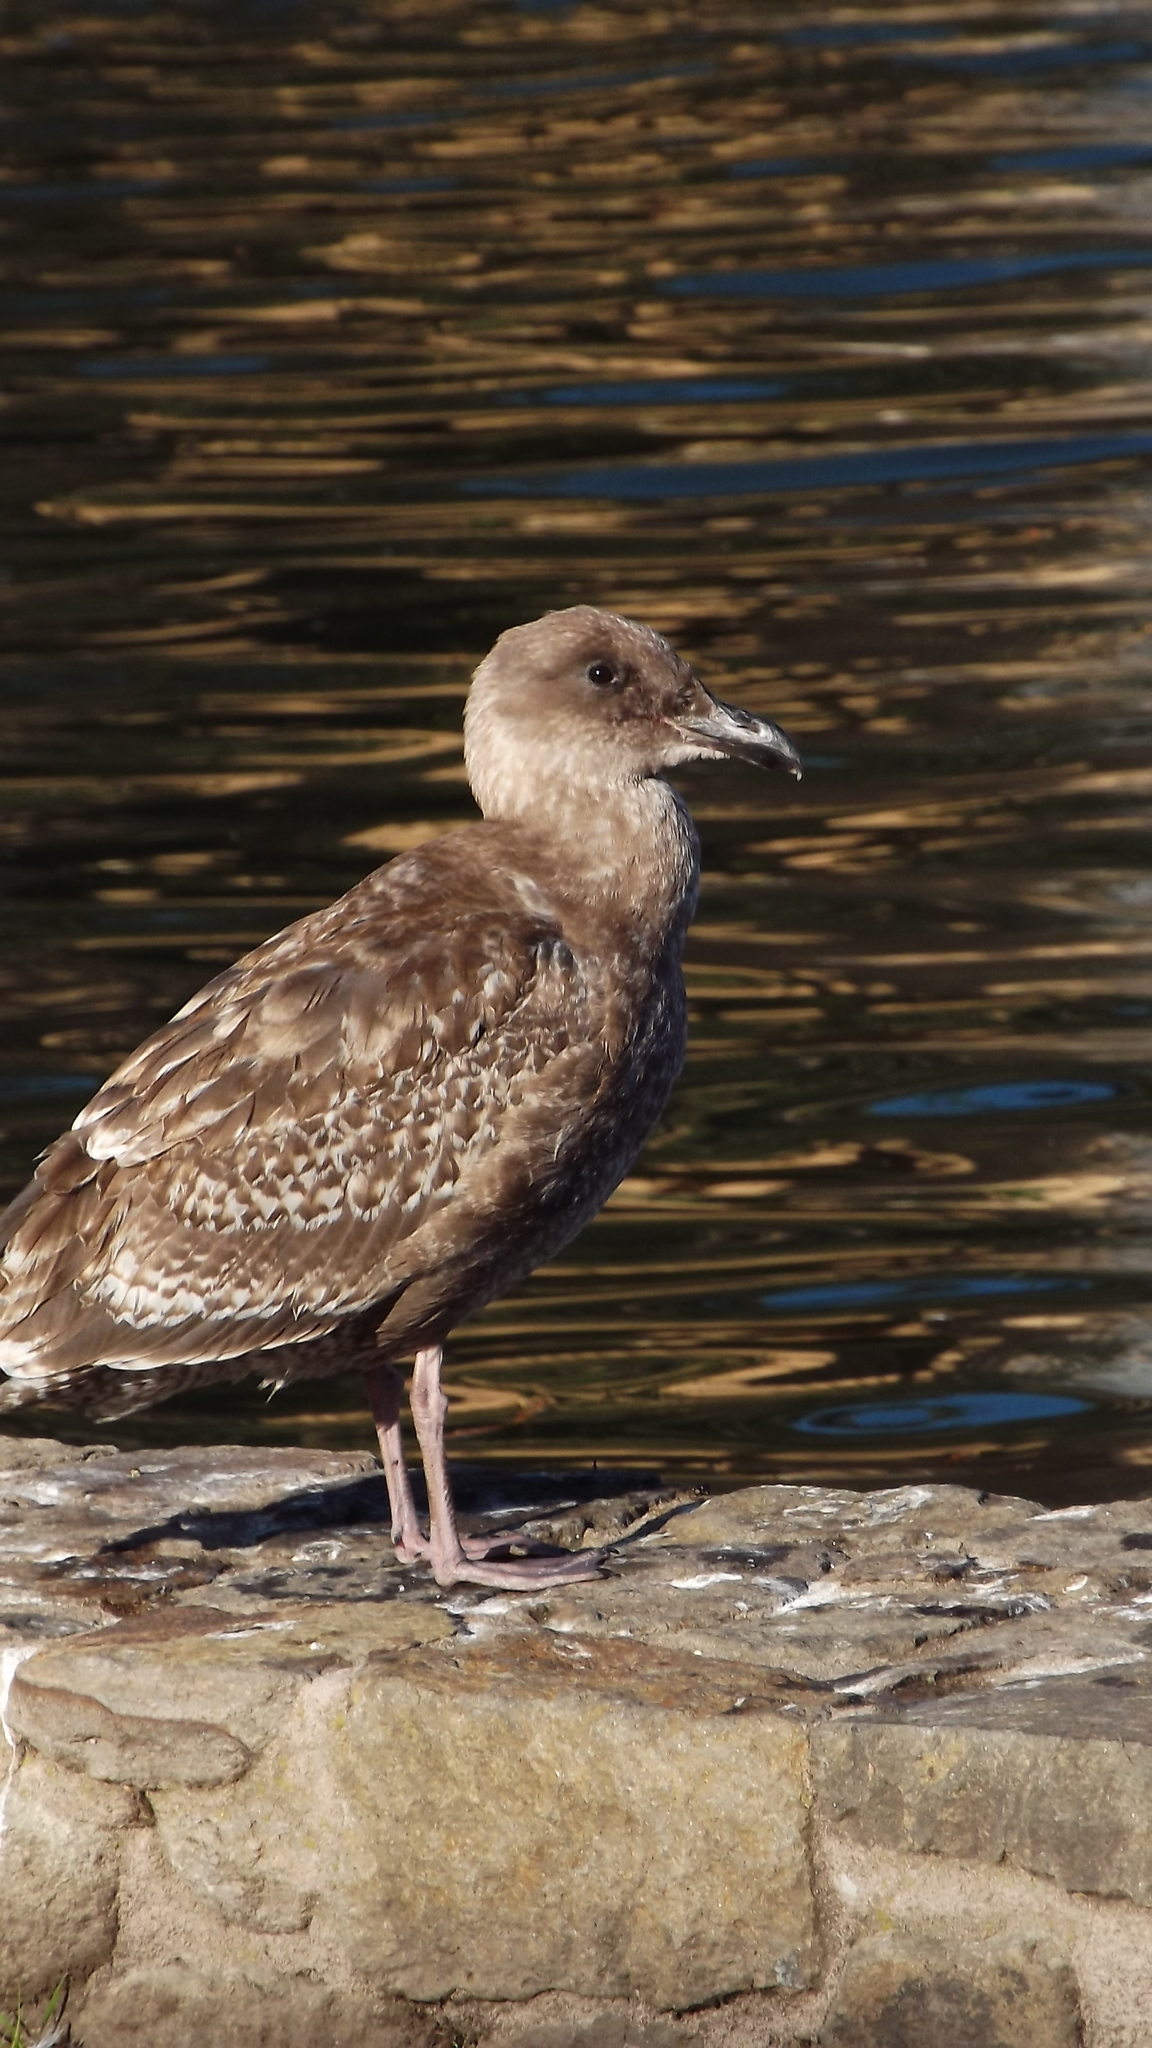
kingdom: Animalia
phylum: Chordata
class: Aves
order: Charadriiformes
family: Laridae
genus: Larus
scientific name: Larus occidentalis
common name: Western gull
